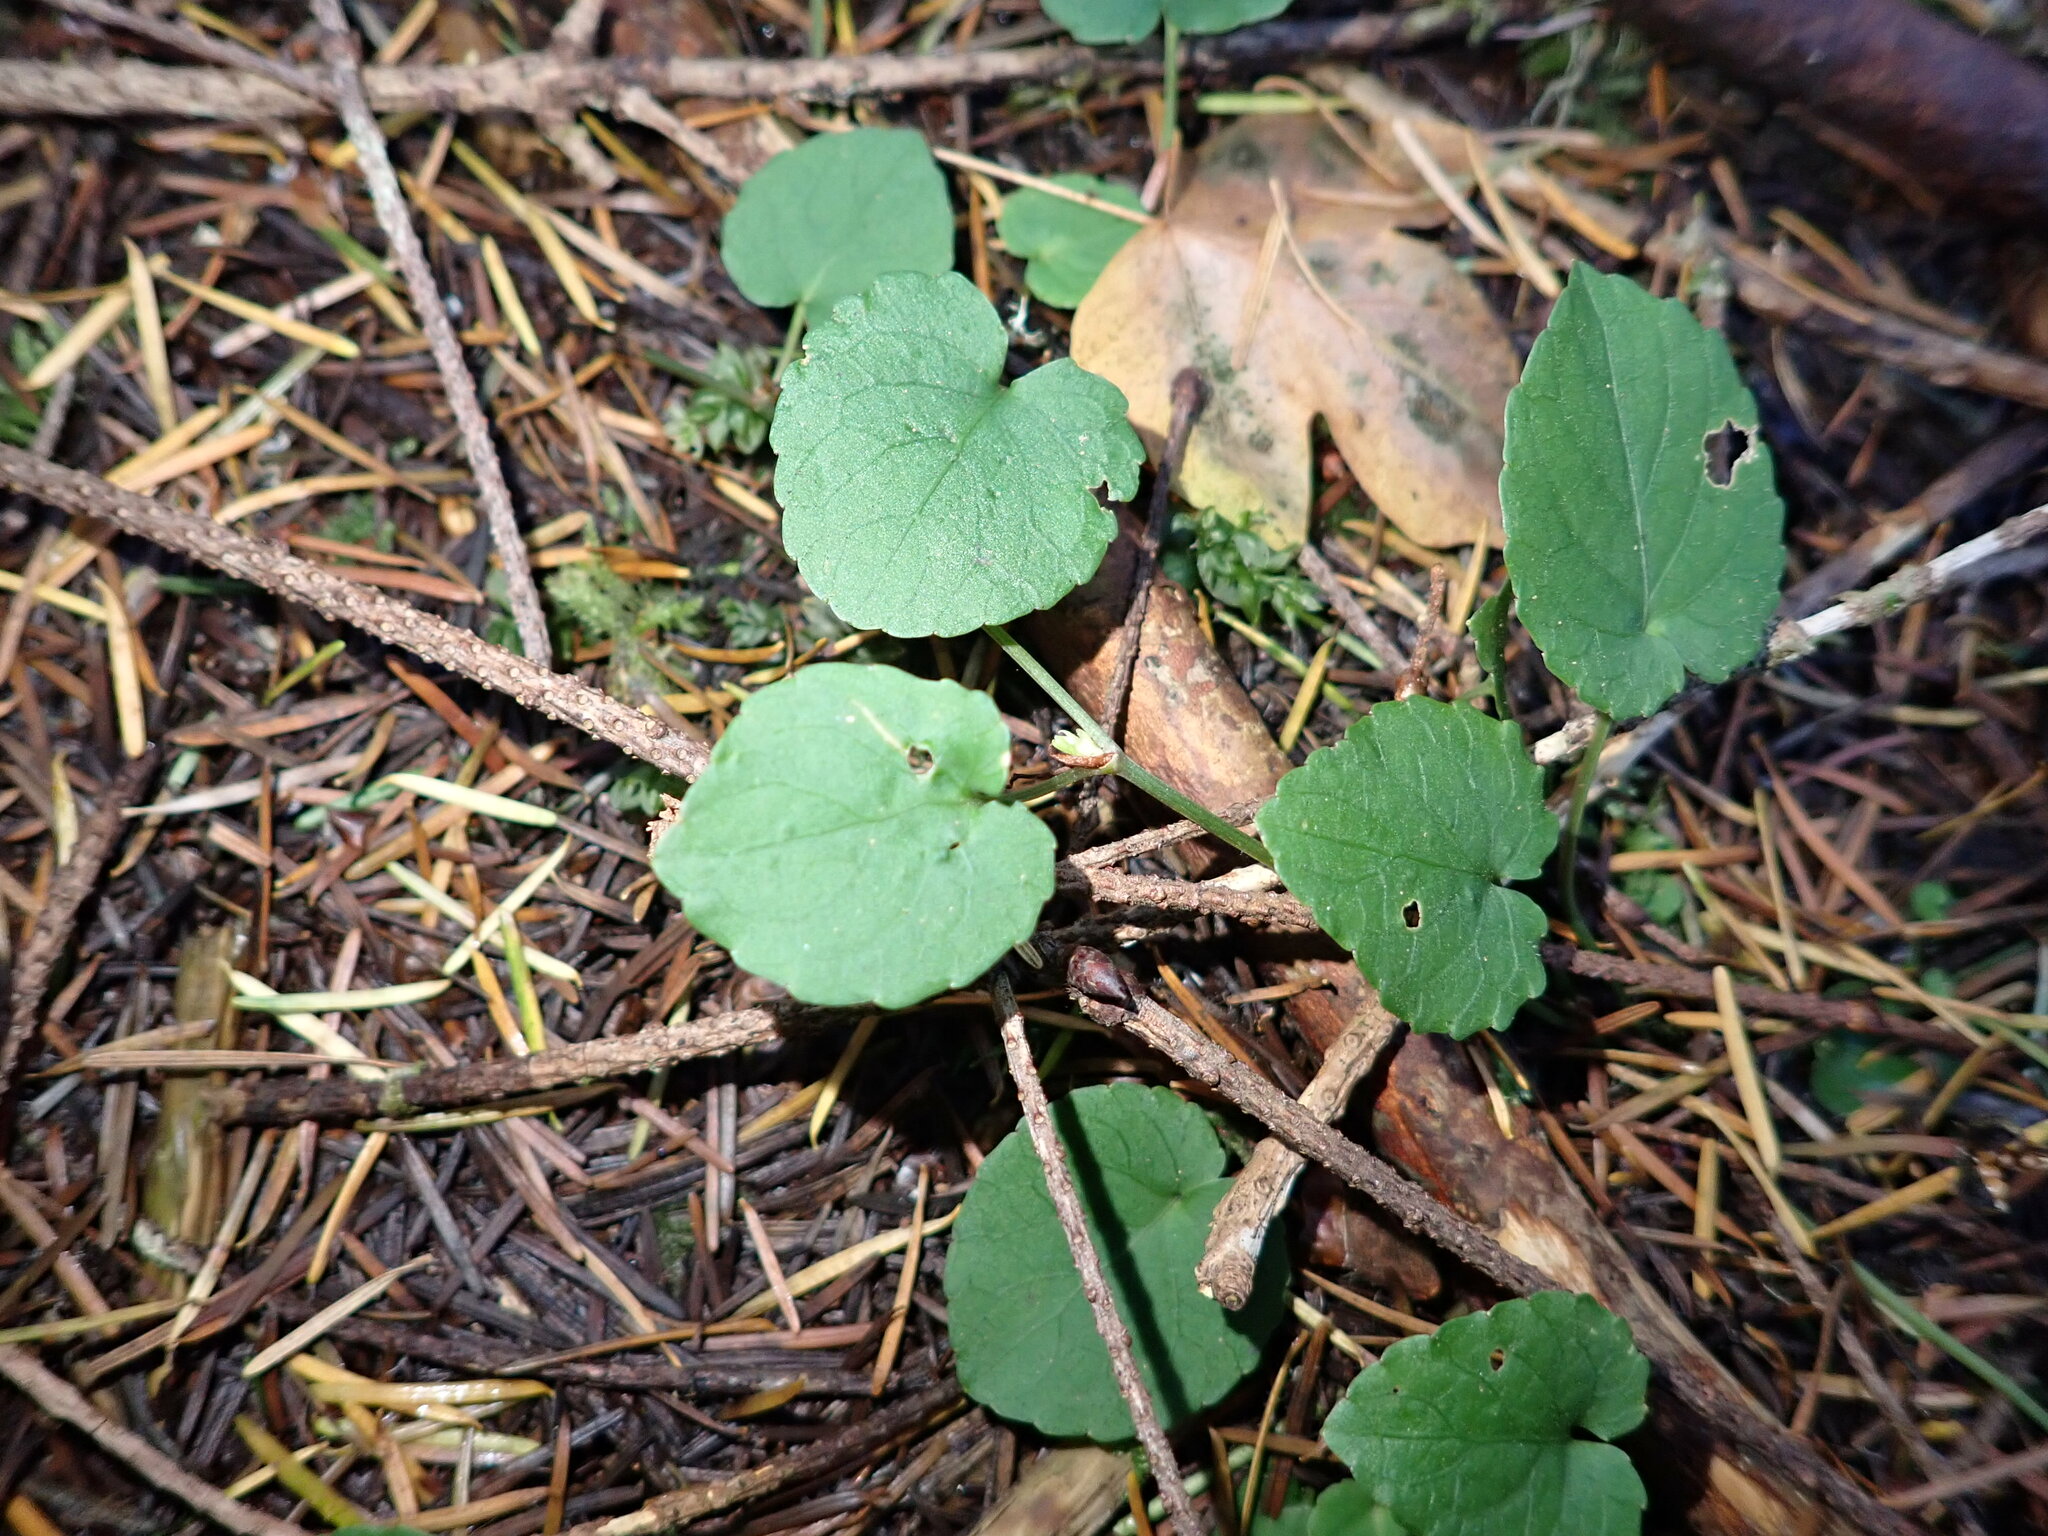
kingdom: Plantae
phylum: Tracheophyta
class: Magnoliopsida
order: Malpighiales
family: Violaceae
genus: Viola
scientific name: Viola sempervirens
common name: Evergreen violet
